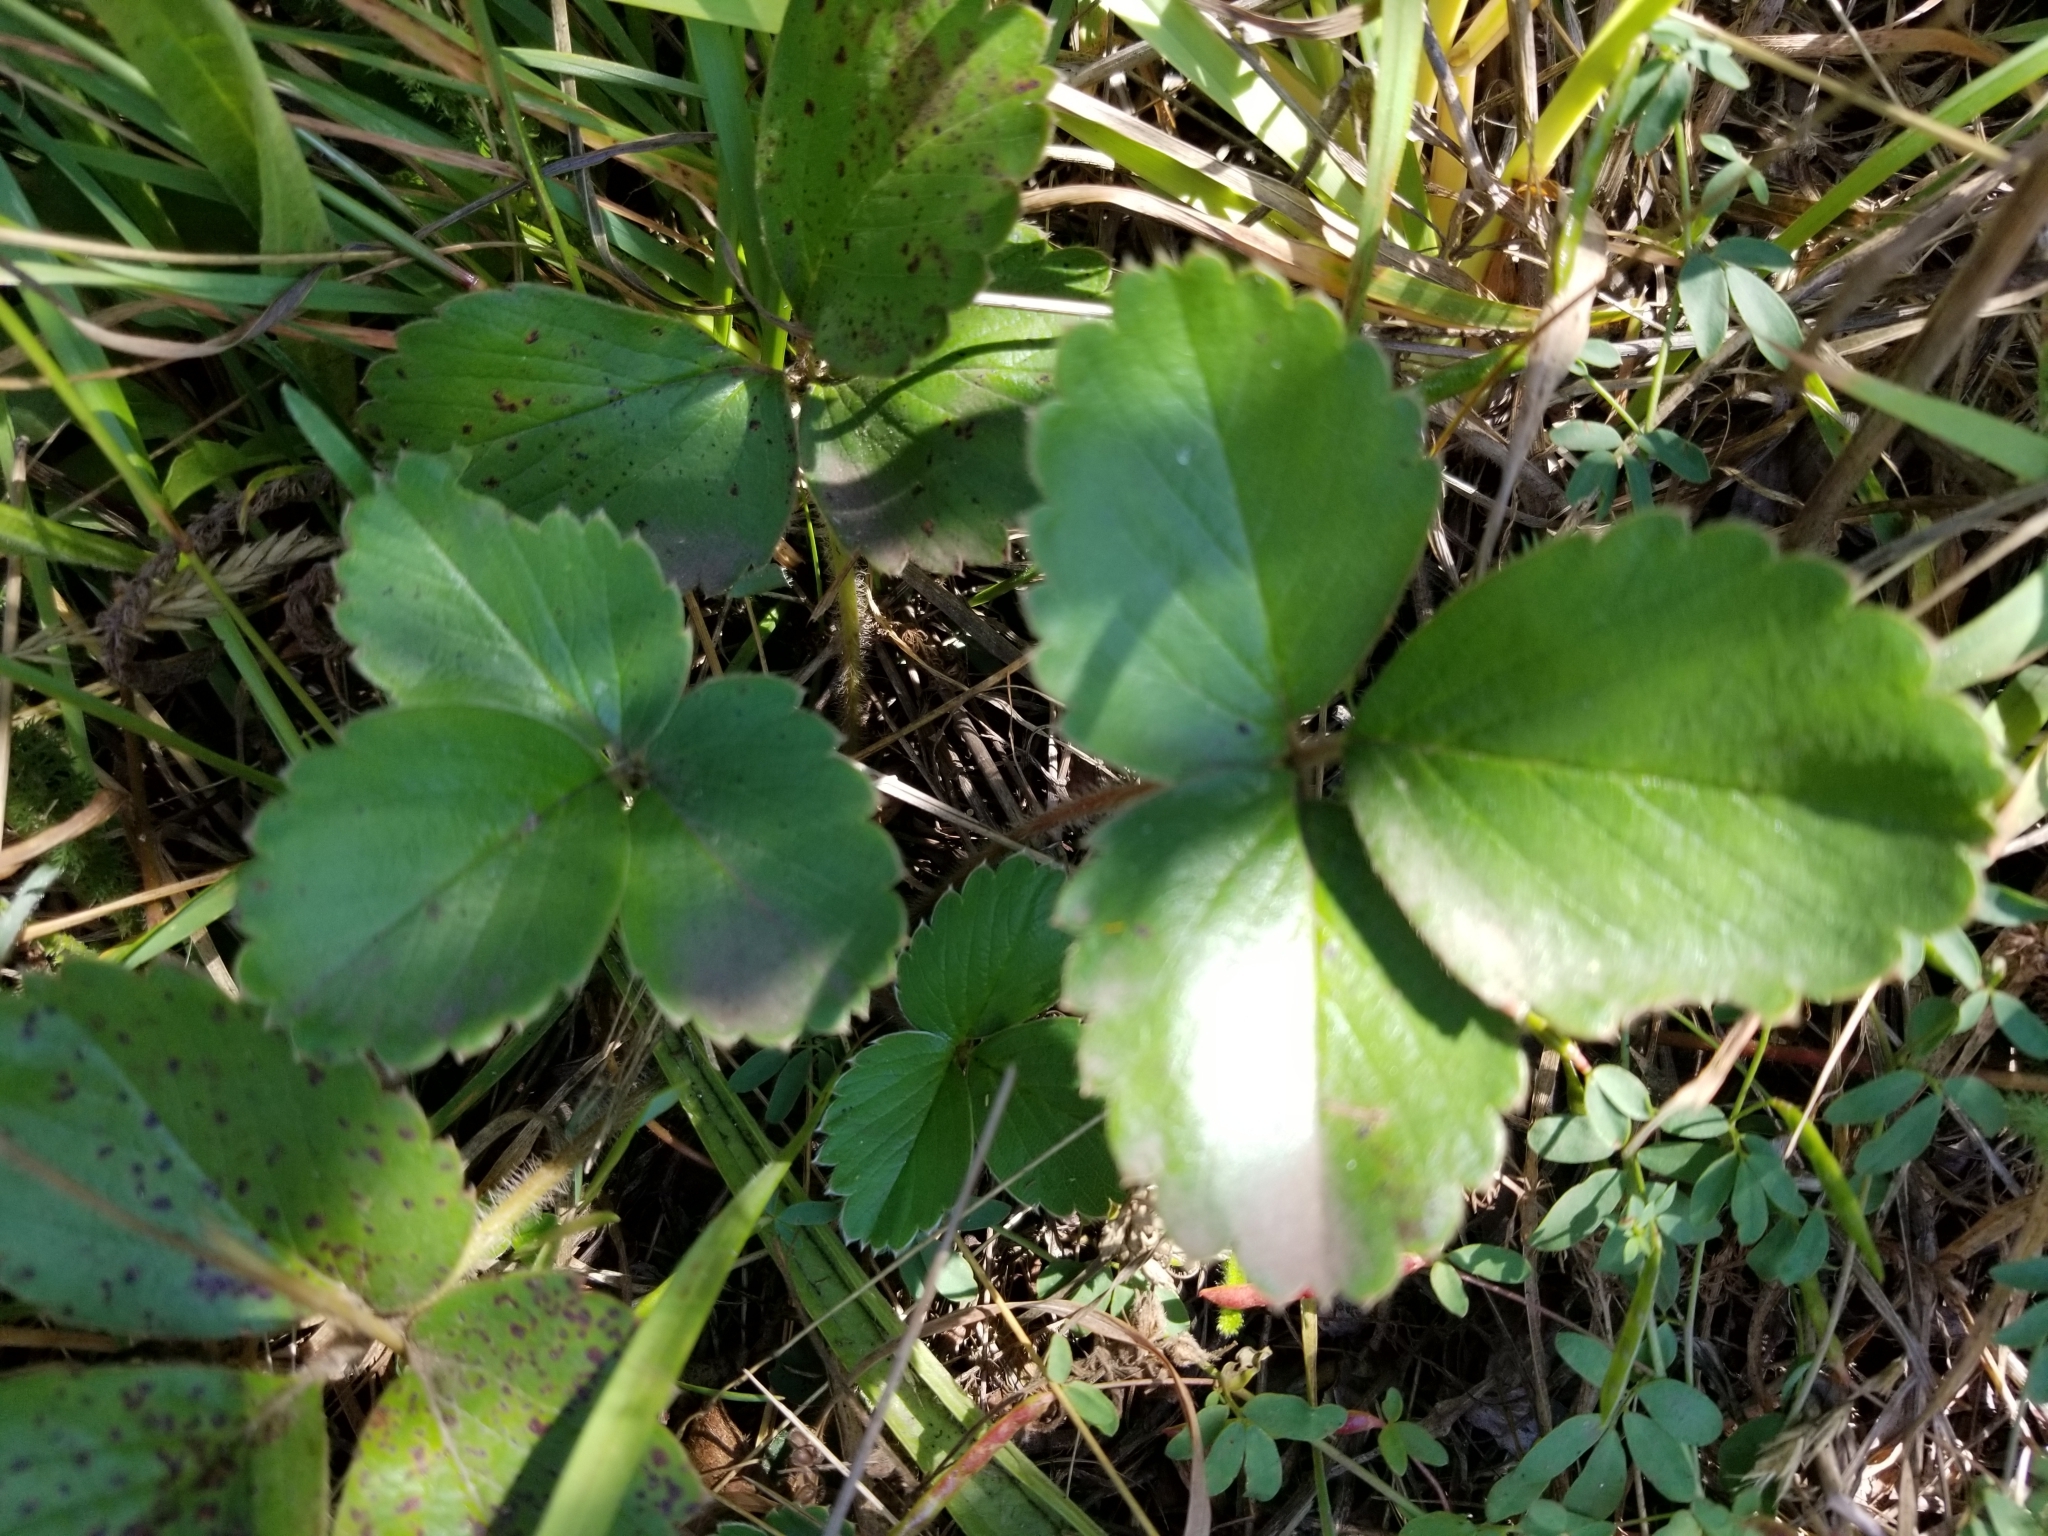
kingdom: Plantae
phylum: Tracheophyta
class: Magnoliopsida
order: Rosales
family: Rosaceae
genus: Fragaria
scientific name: Fragaria chiloensis
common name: Beach strawberry
